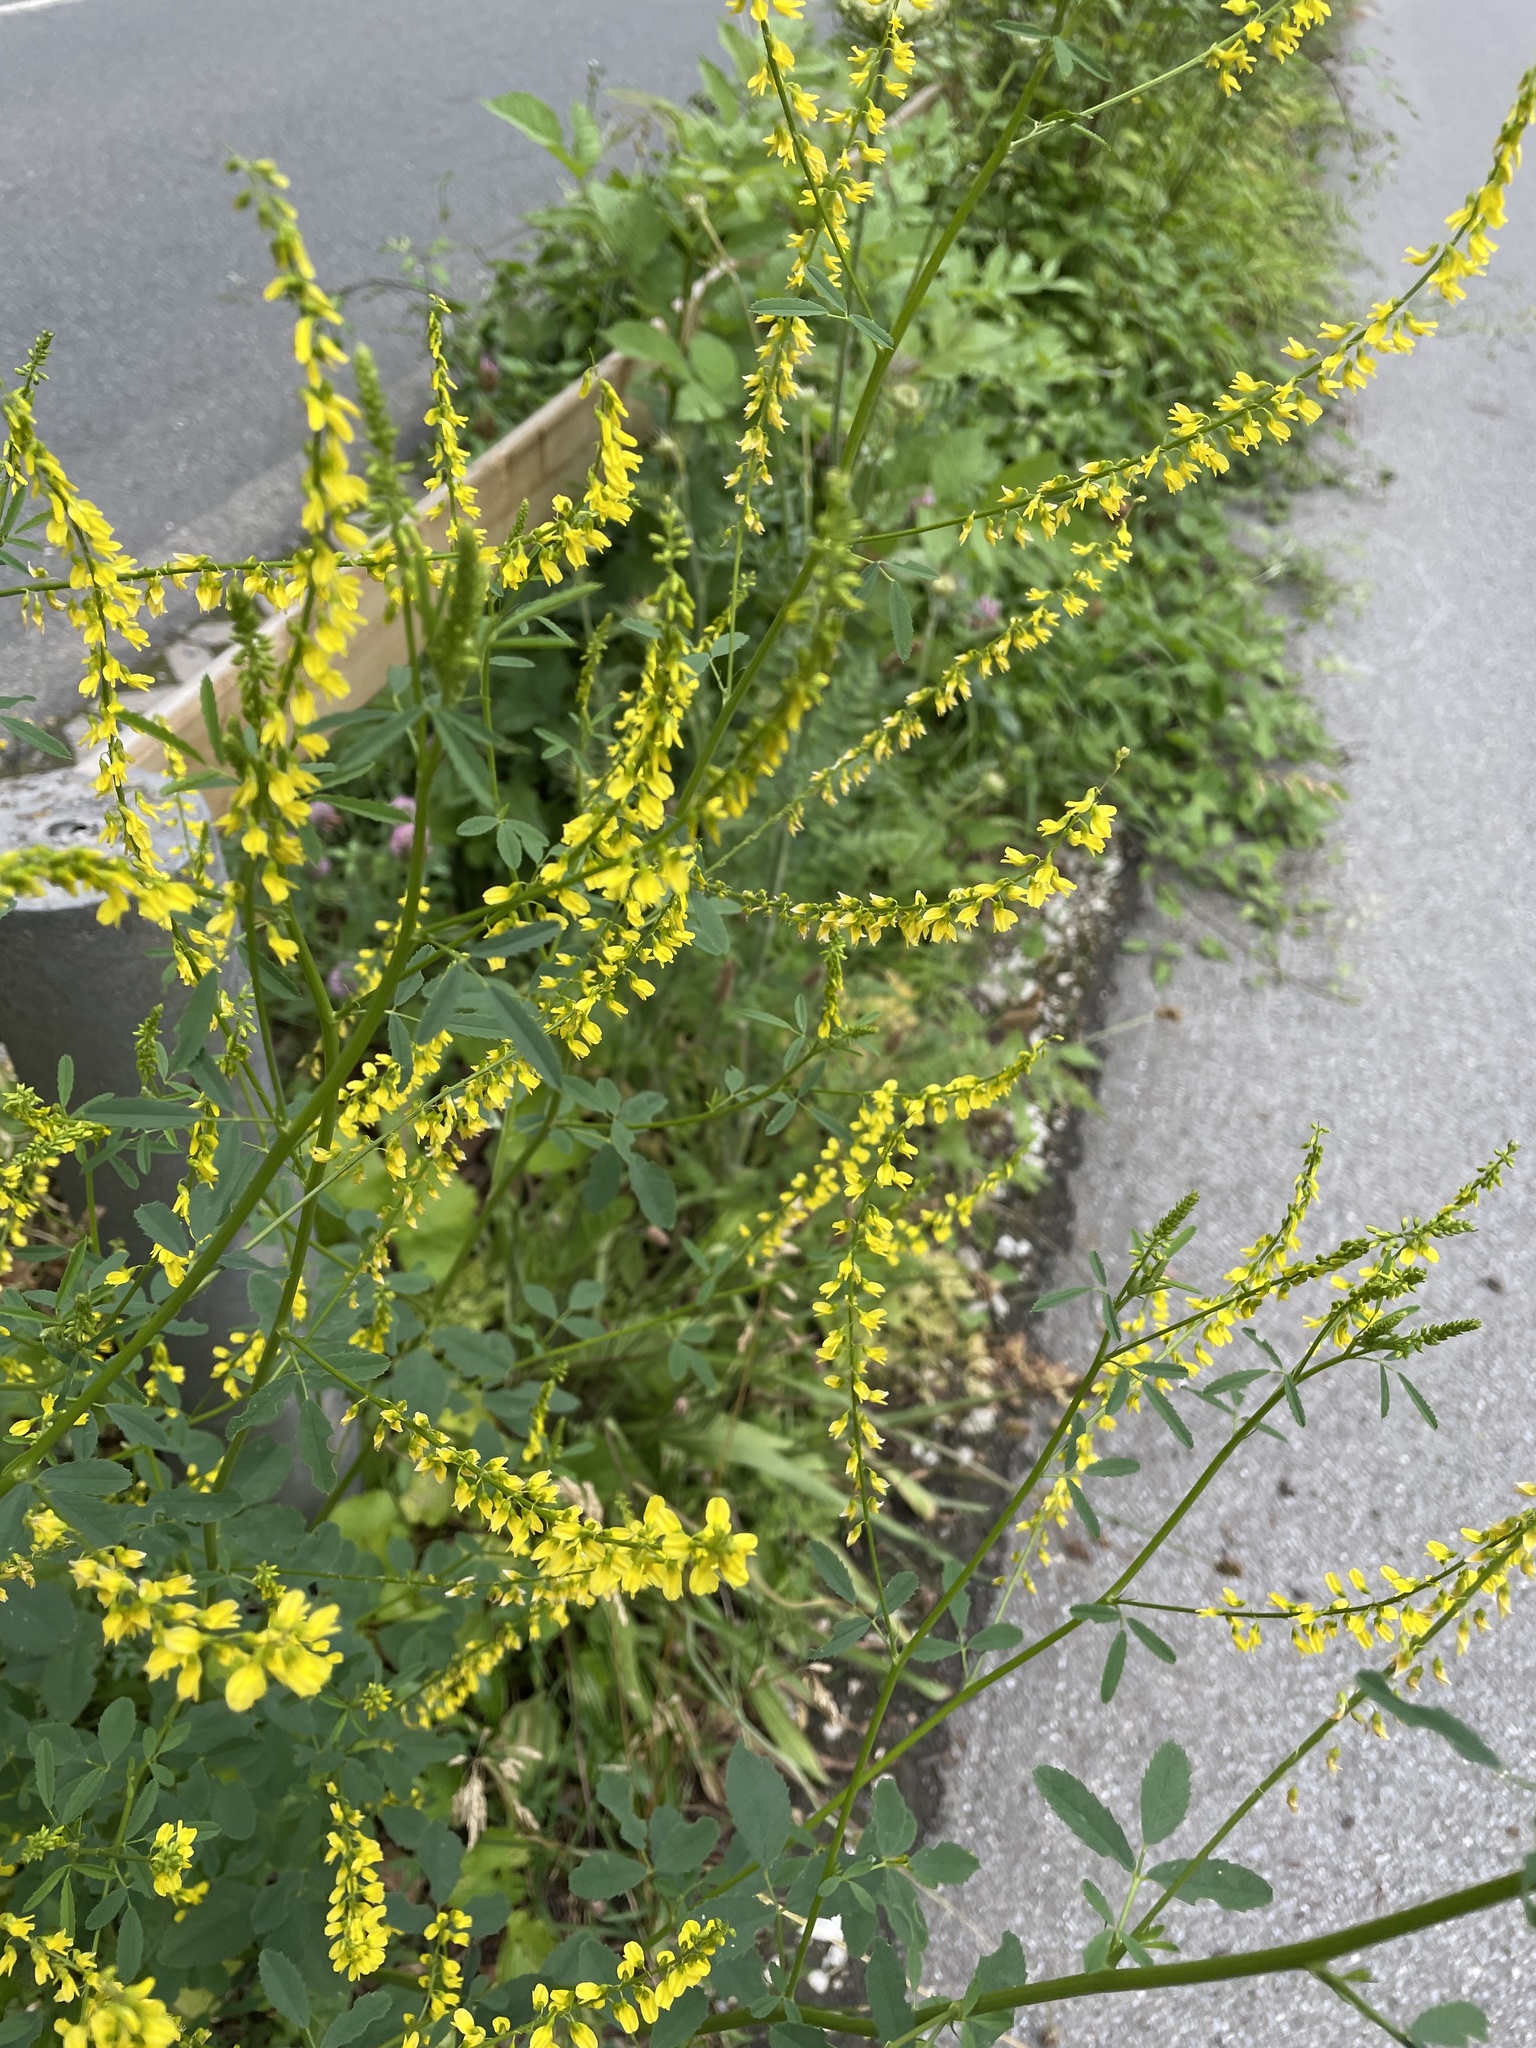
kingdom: Plantae
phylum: Tracheophyta
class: Magnoliopsida
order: Fabales
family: Fabaceae
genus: Melilotus
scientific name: Melilotus officinalis
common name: Sweetclover
